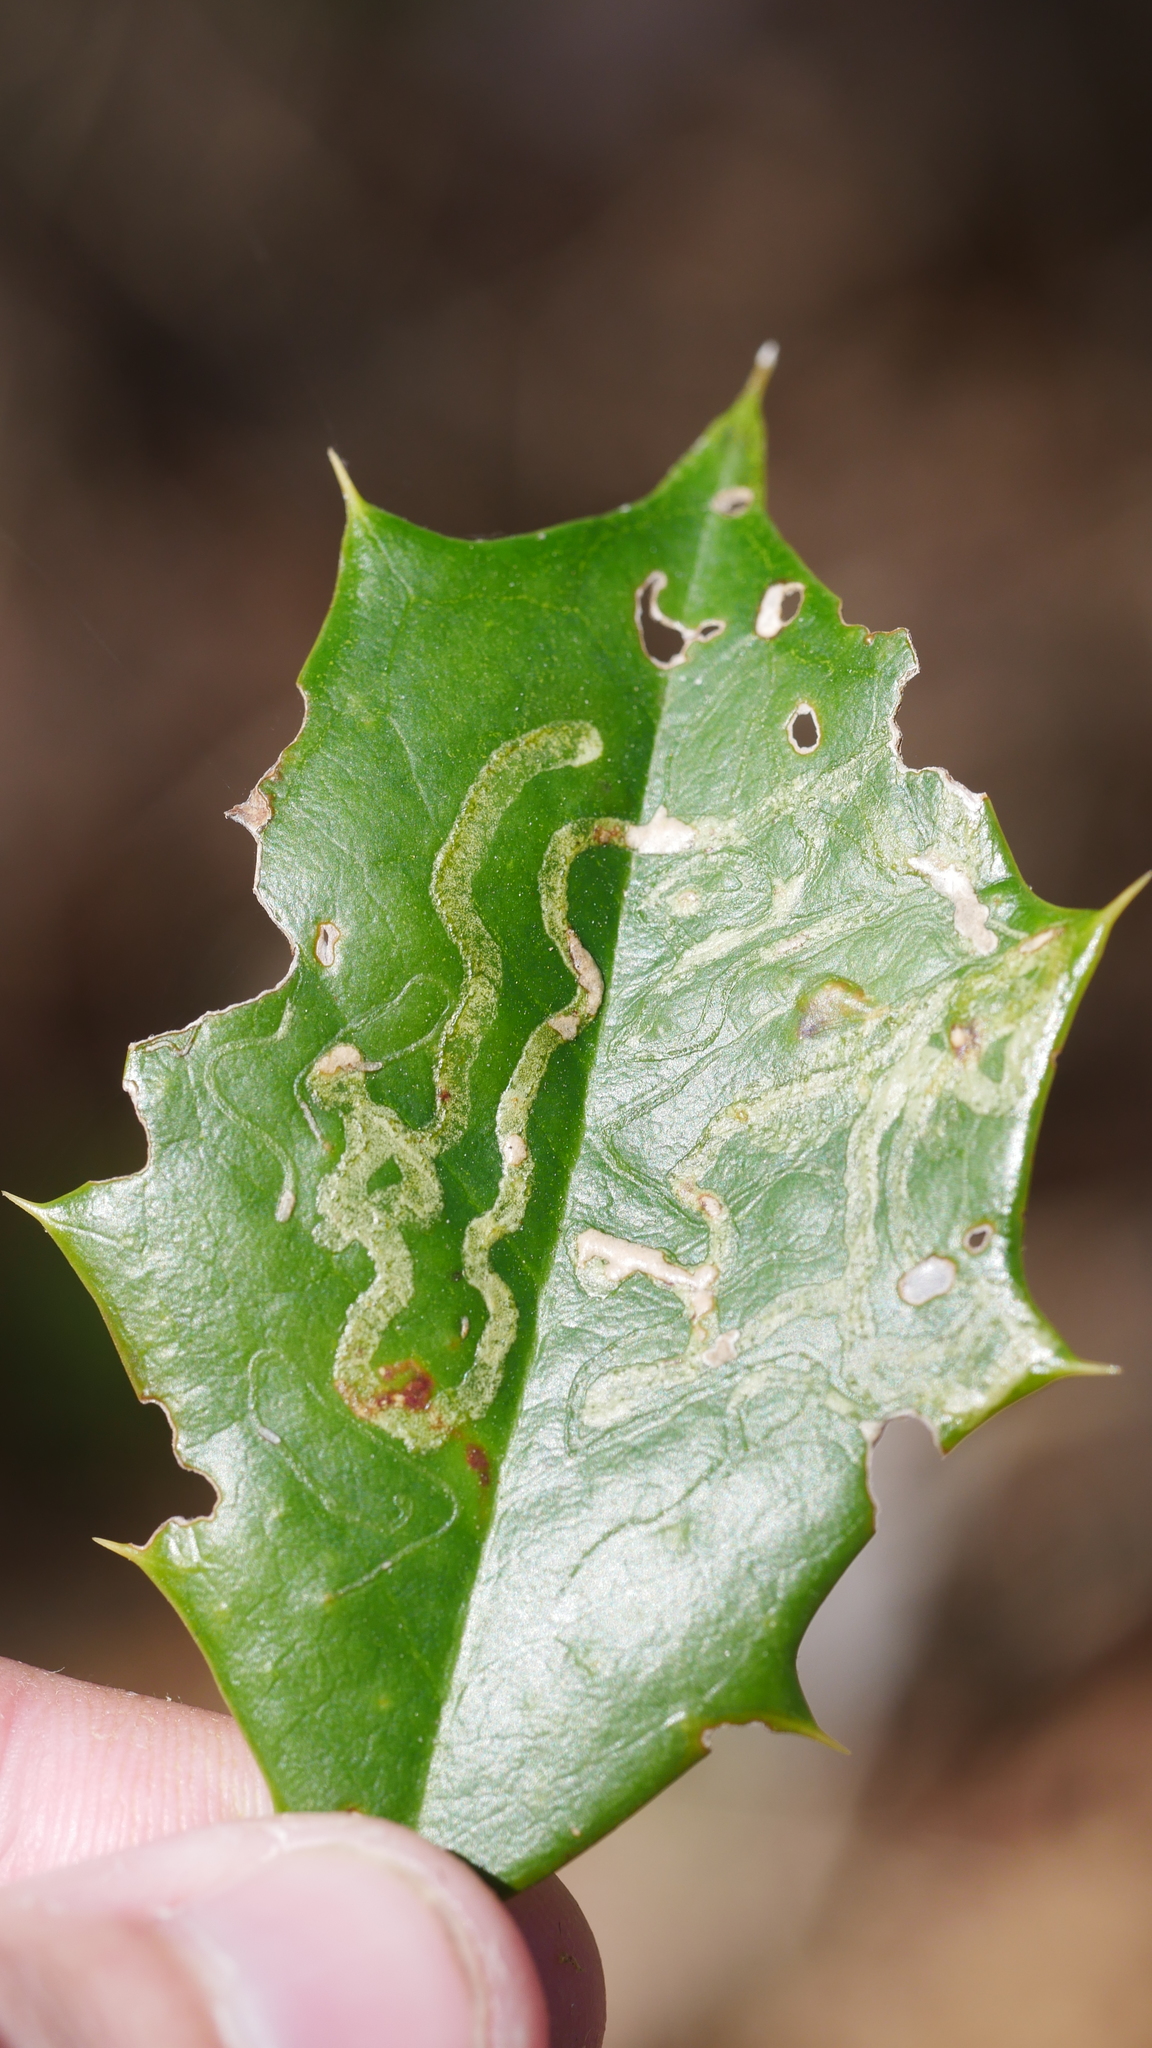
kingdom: Animalia
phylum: Arthropoda
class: Insecta
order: Diptera
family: Agromyzidae
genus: Phytomyza
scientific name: Phytomyza opacae
